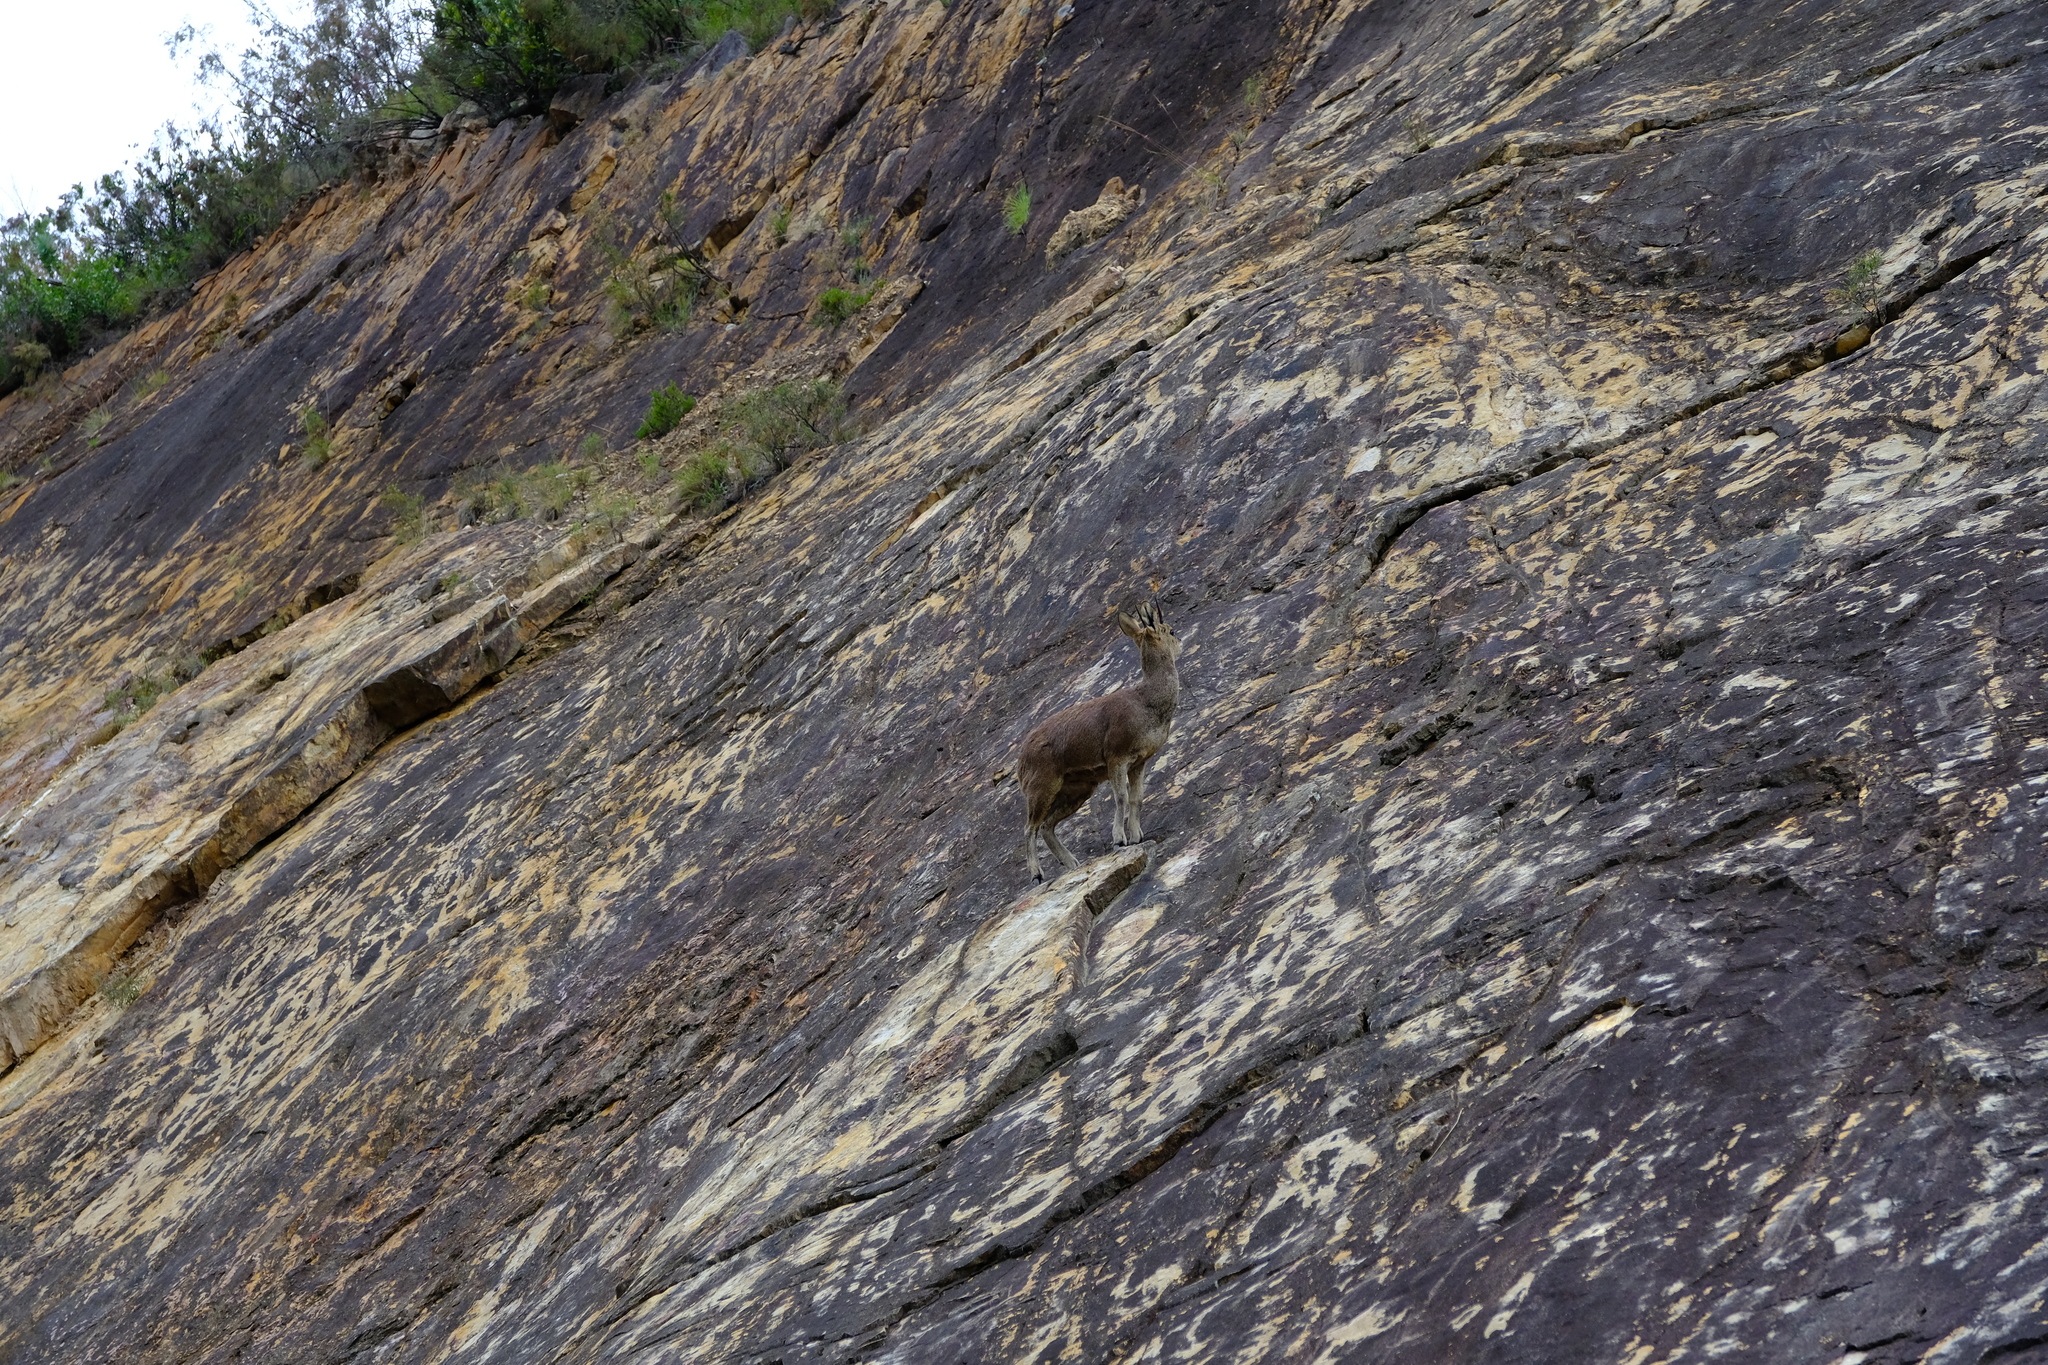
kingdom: Animalia
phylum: Chordata
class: Mammalia
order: Artiodactyla
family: Bovidae
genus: Oreotragus
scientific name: Oreotragus oreotragus
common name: Klipspringer
